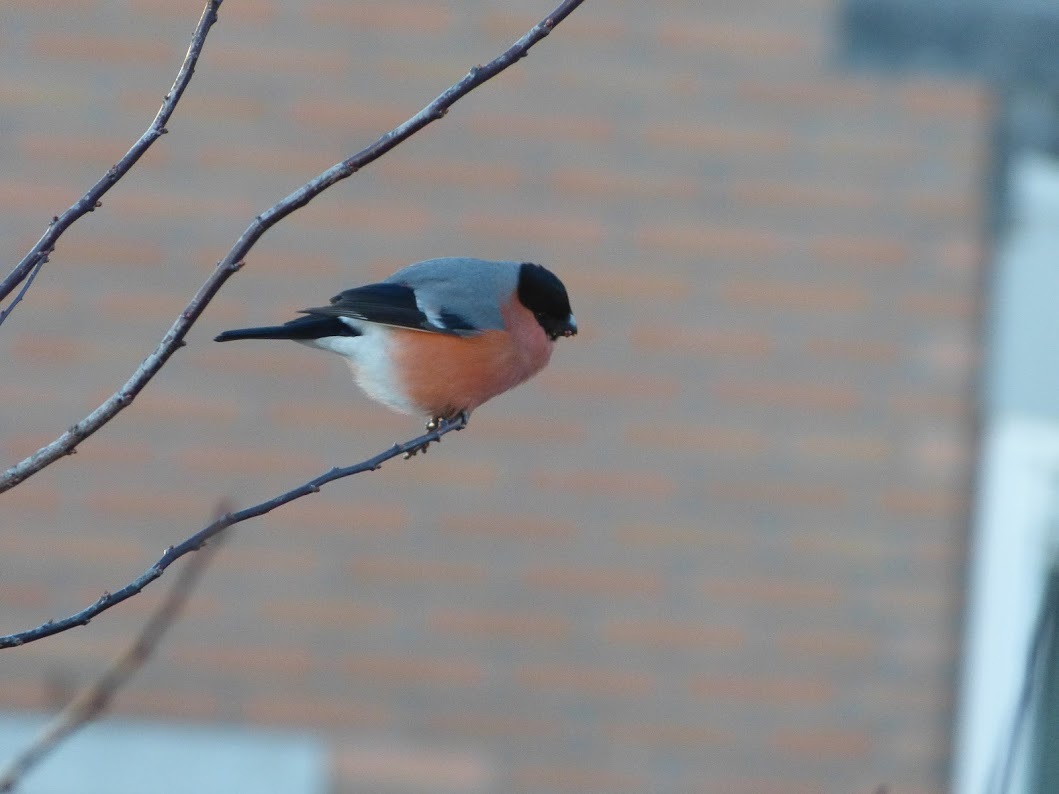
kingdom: Animalia
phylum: Chordata
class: Aves
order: Passeriformes
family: Fringillidae
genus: Pyrrhula
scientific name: Pyrrhula pyrrhula
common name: Eurasian bullfinch
